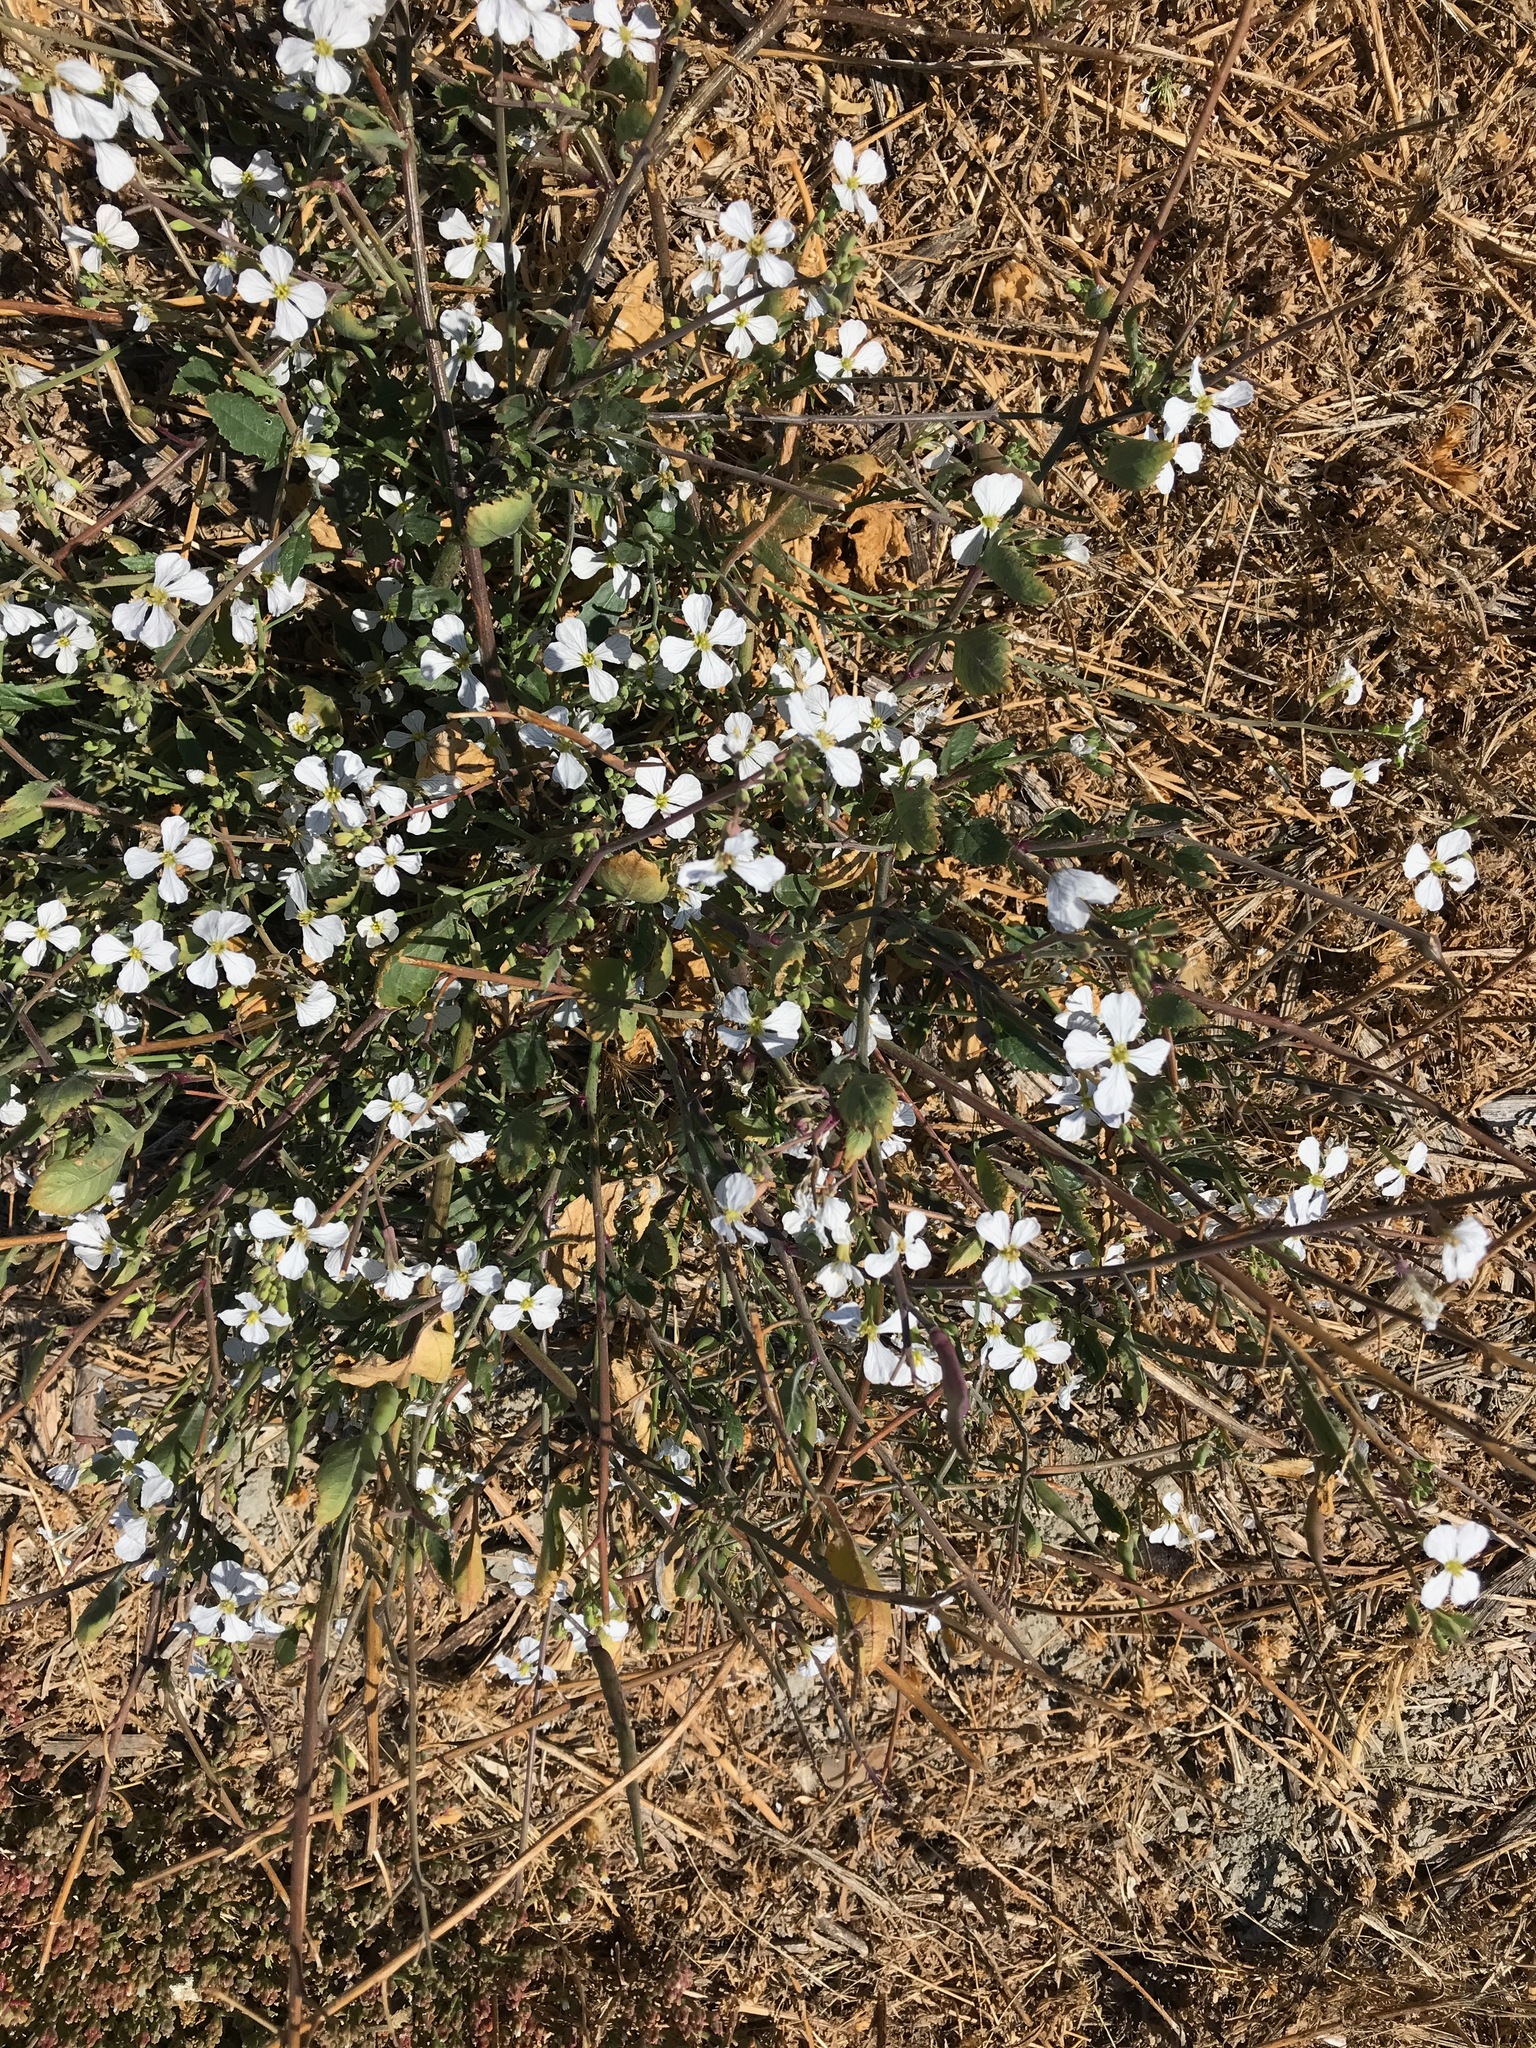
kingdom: Plantae
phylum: Tracheophyta
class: Magnoliopsida
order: Brassicales
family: Brassicaceae
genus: Raphanus
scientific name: Raphanus sativus
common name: Cultivated radish
